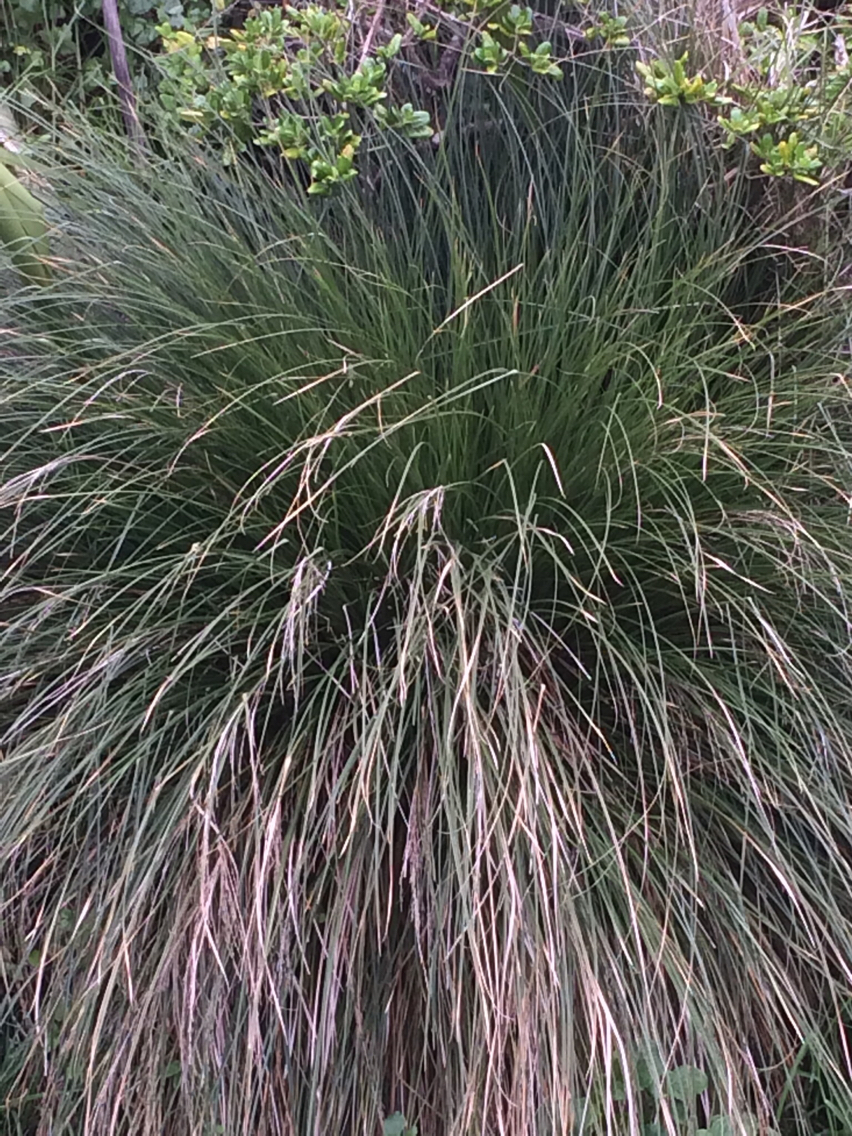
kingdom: Plantae
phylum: Tracheophyta
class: Liliopsida
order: Poales
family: Cyperaceae
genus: Carex
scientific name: Carex secta
